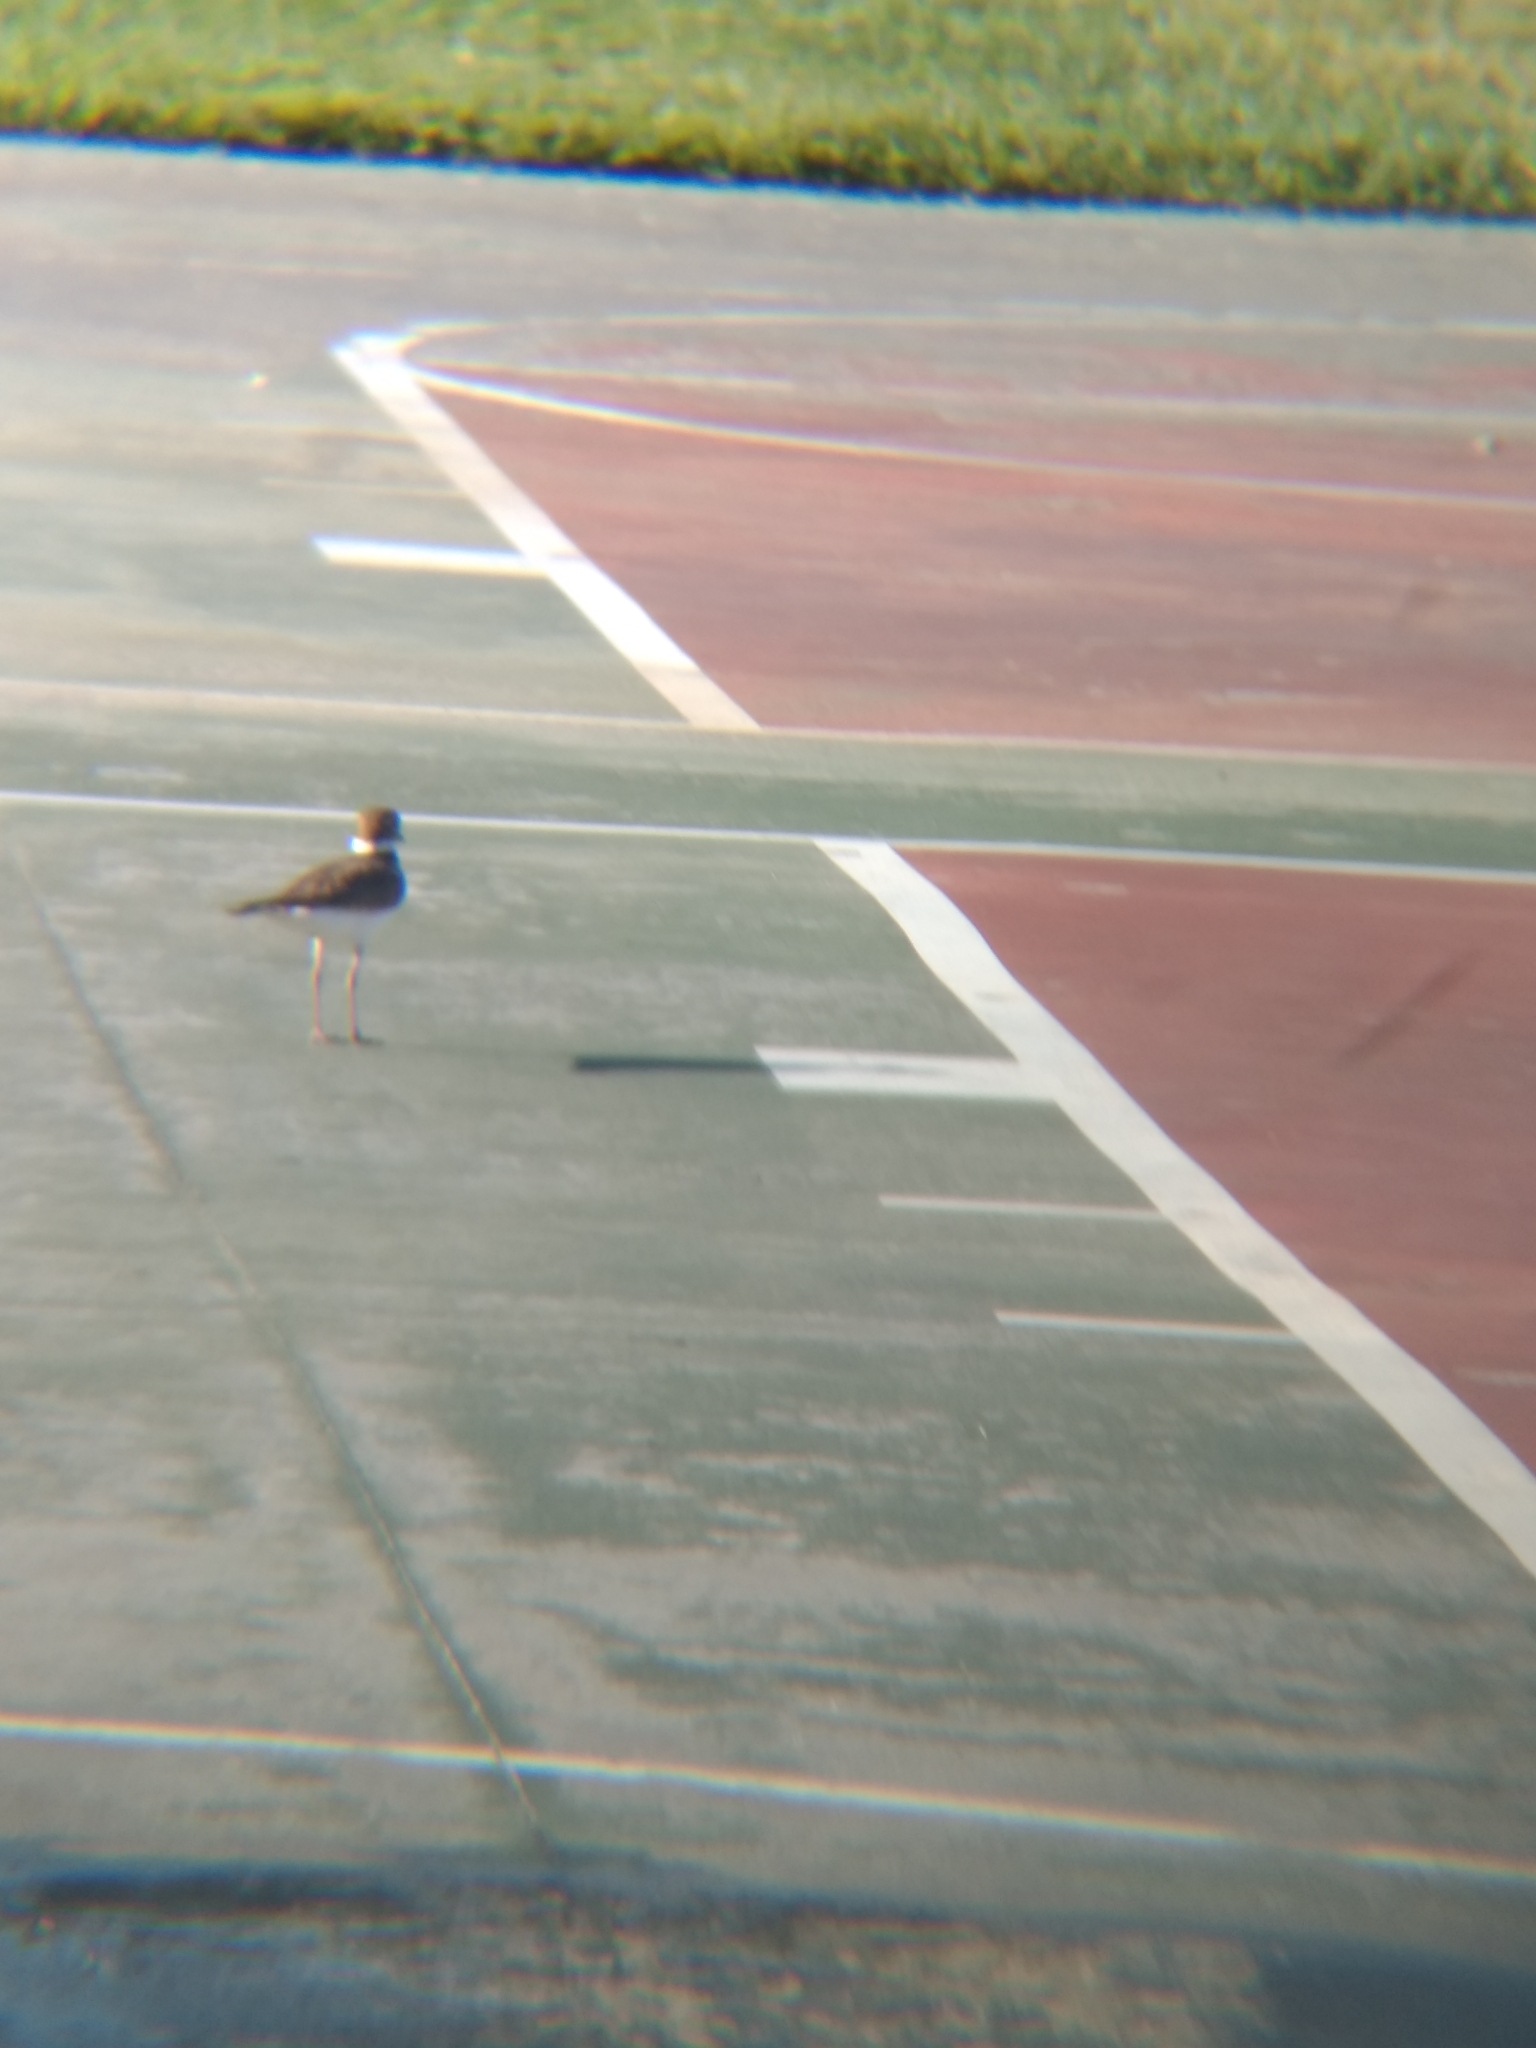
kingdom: Animalia
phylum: Chordata
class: Aves
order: Charadriiformes
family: Charadriidae
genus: Charadrius
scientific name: Charadrius vociferus
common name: Killdeer
